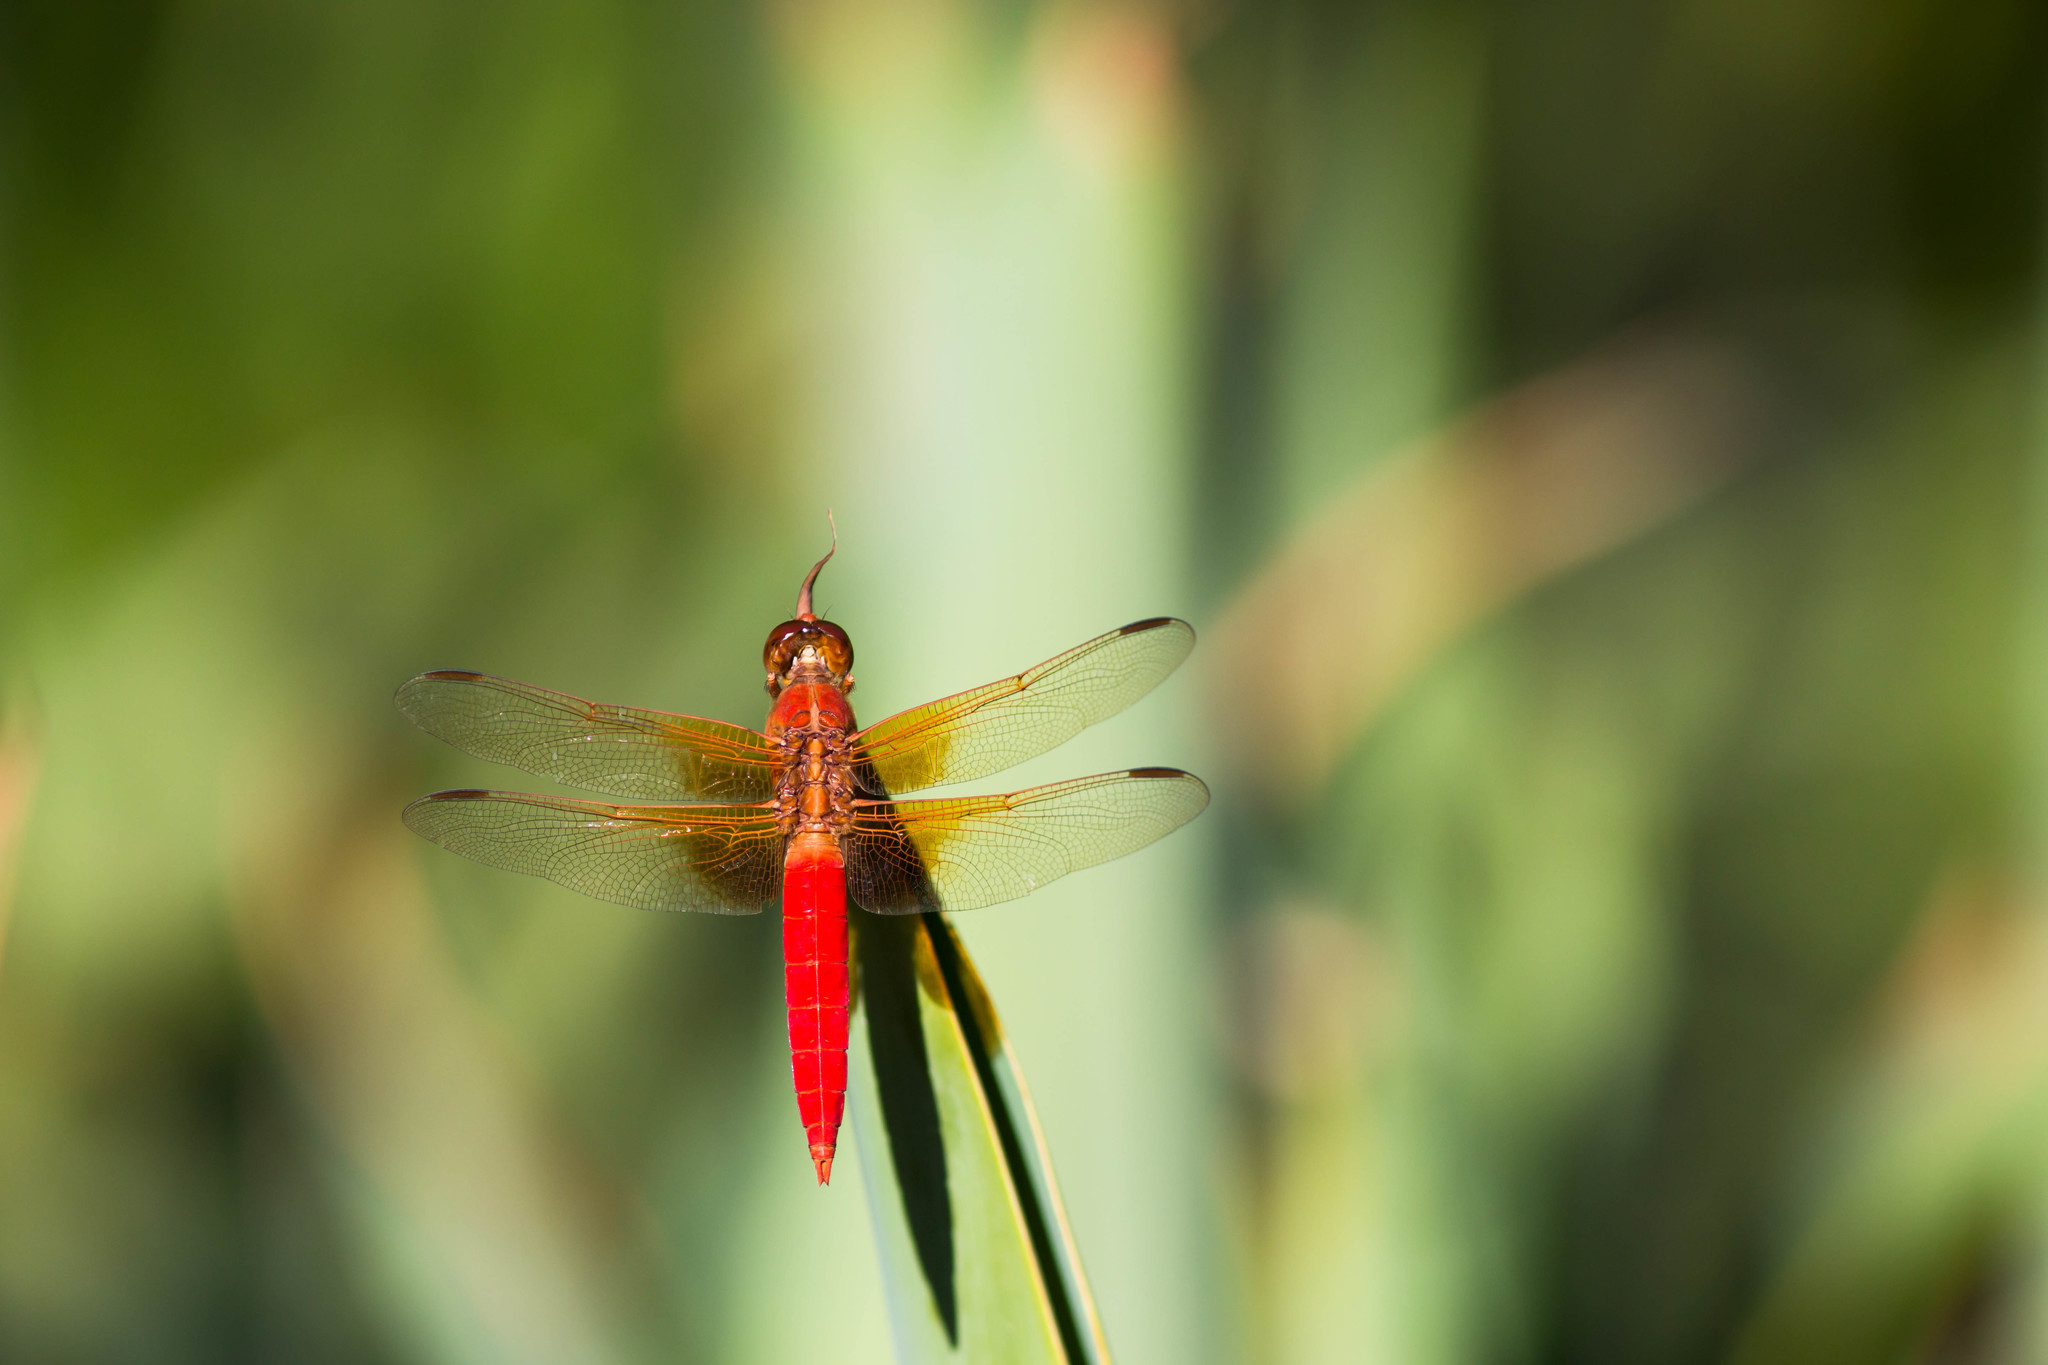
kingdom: Animalia
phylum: Arthropoda
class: Insecta
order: Odonata
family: Libellulidae
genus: Libellula
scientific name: Libellula croceipennis
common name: Neon skimmer
